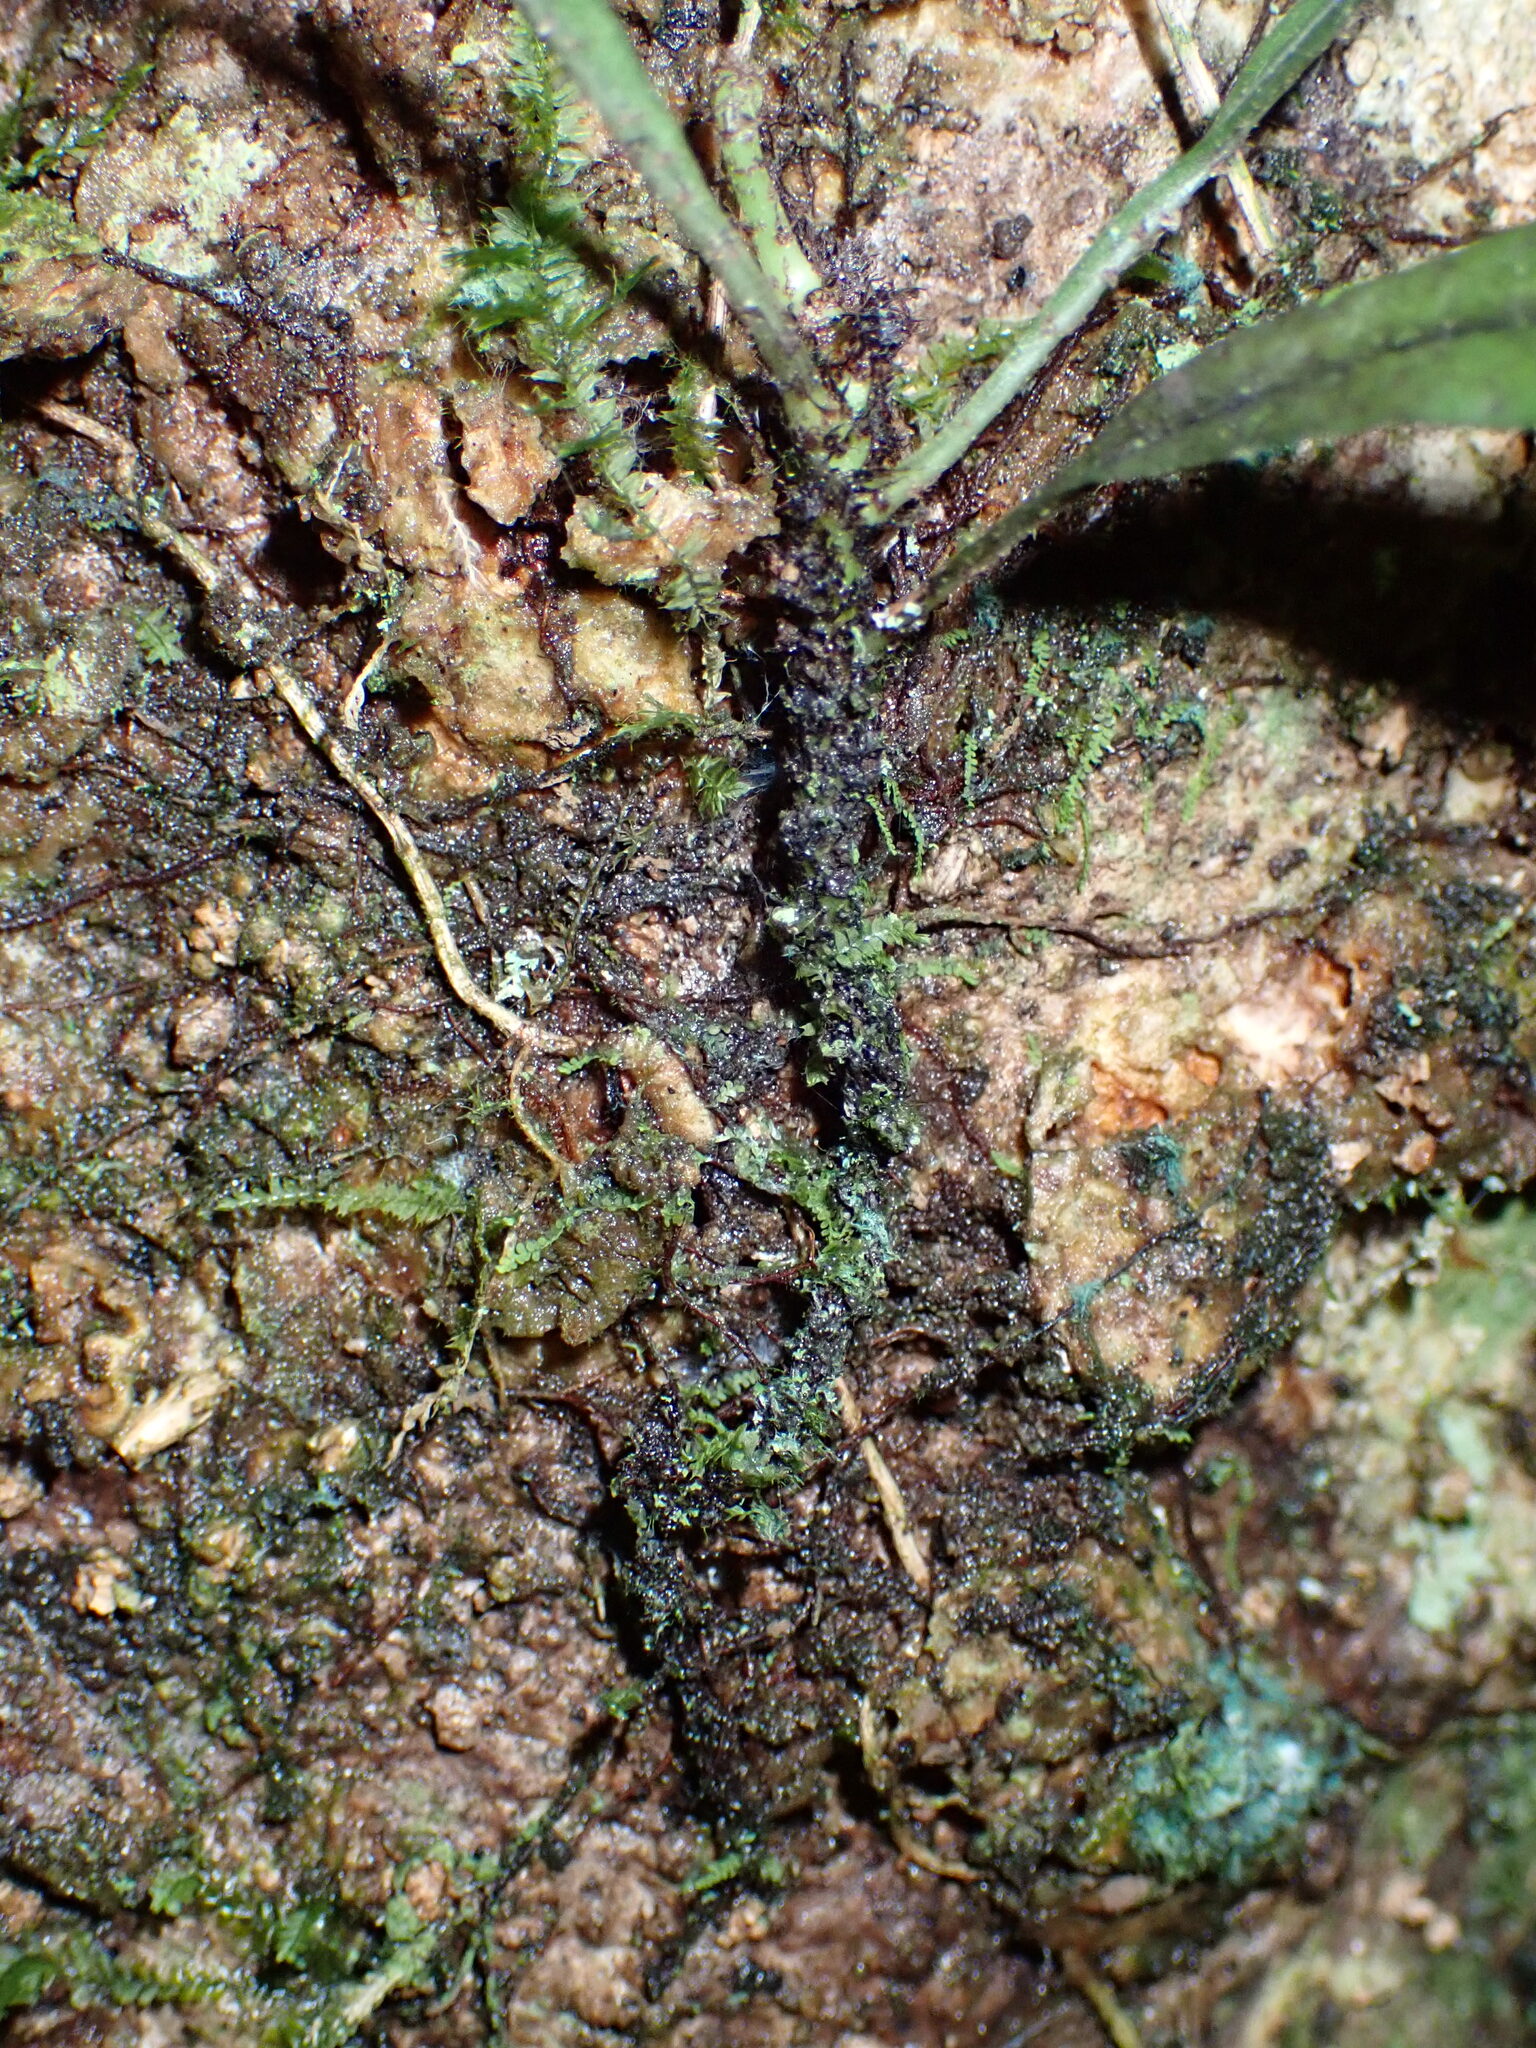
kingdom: Plantae
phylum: Tracheophyta
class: Polypodiopsida
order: Polypodiales
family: Polypodiaceae
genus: Selliguea
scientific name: Selliguea yakushimensis
